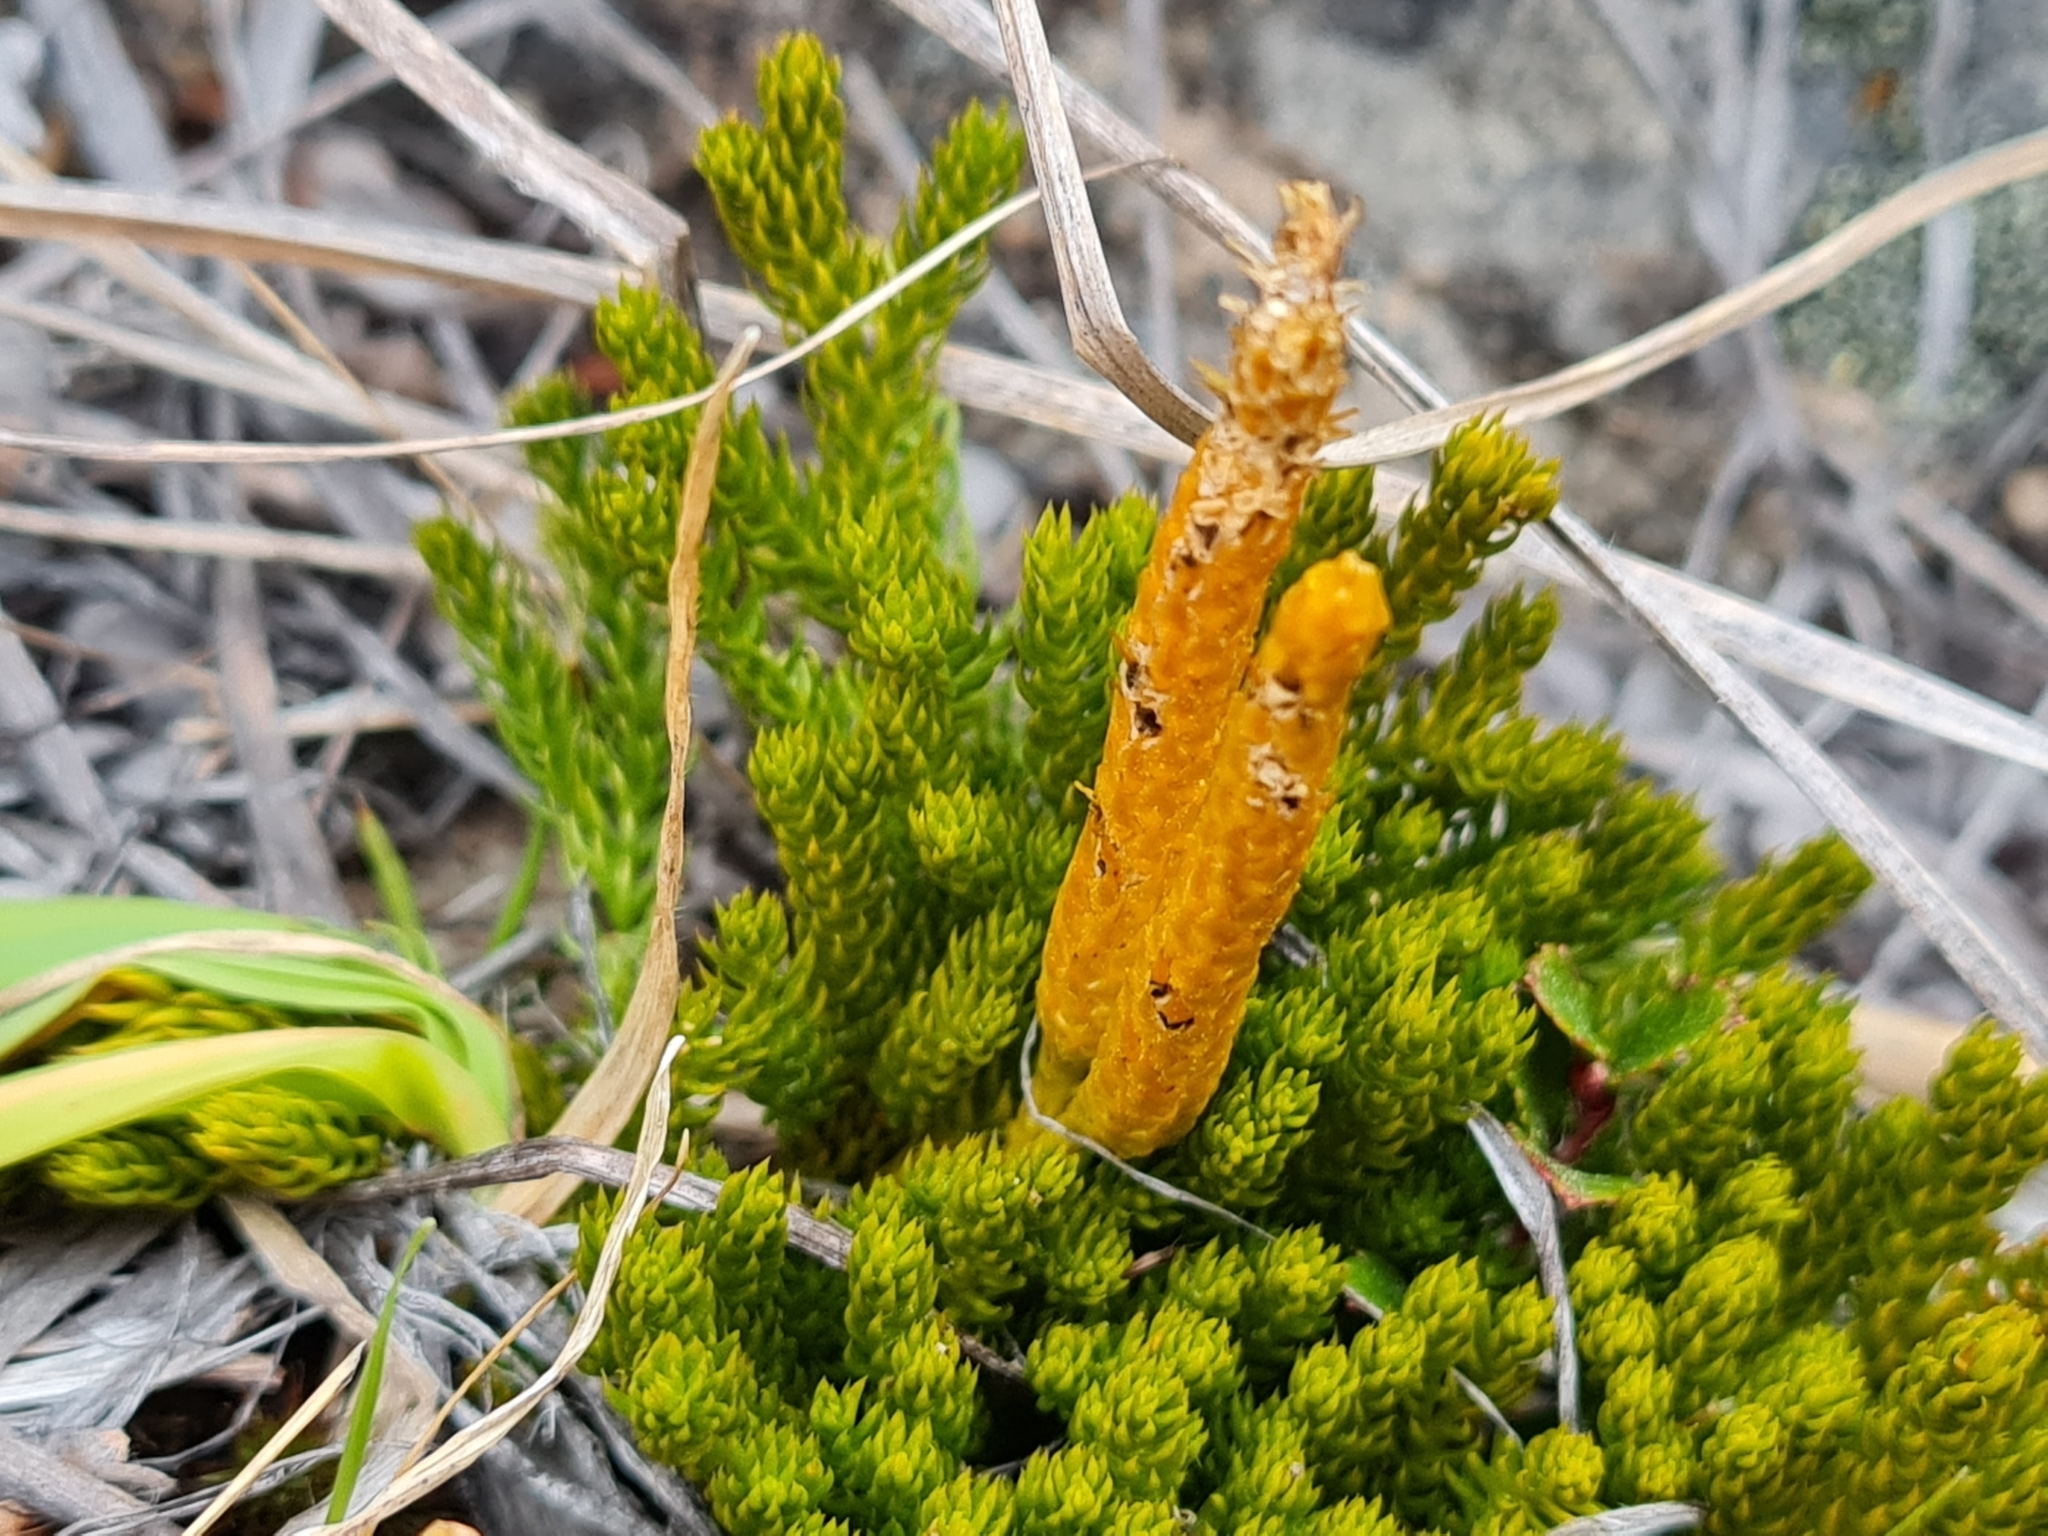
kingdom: Plantae
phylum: Tracheophyta
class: Lycopodiopsida
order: Lycopodiales
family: Lycopodiaceae
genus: Austrolycopodium
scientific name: Austrolycopodium fastigiatum
